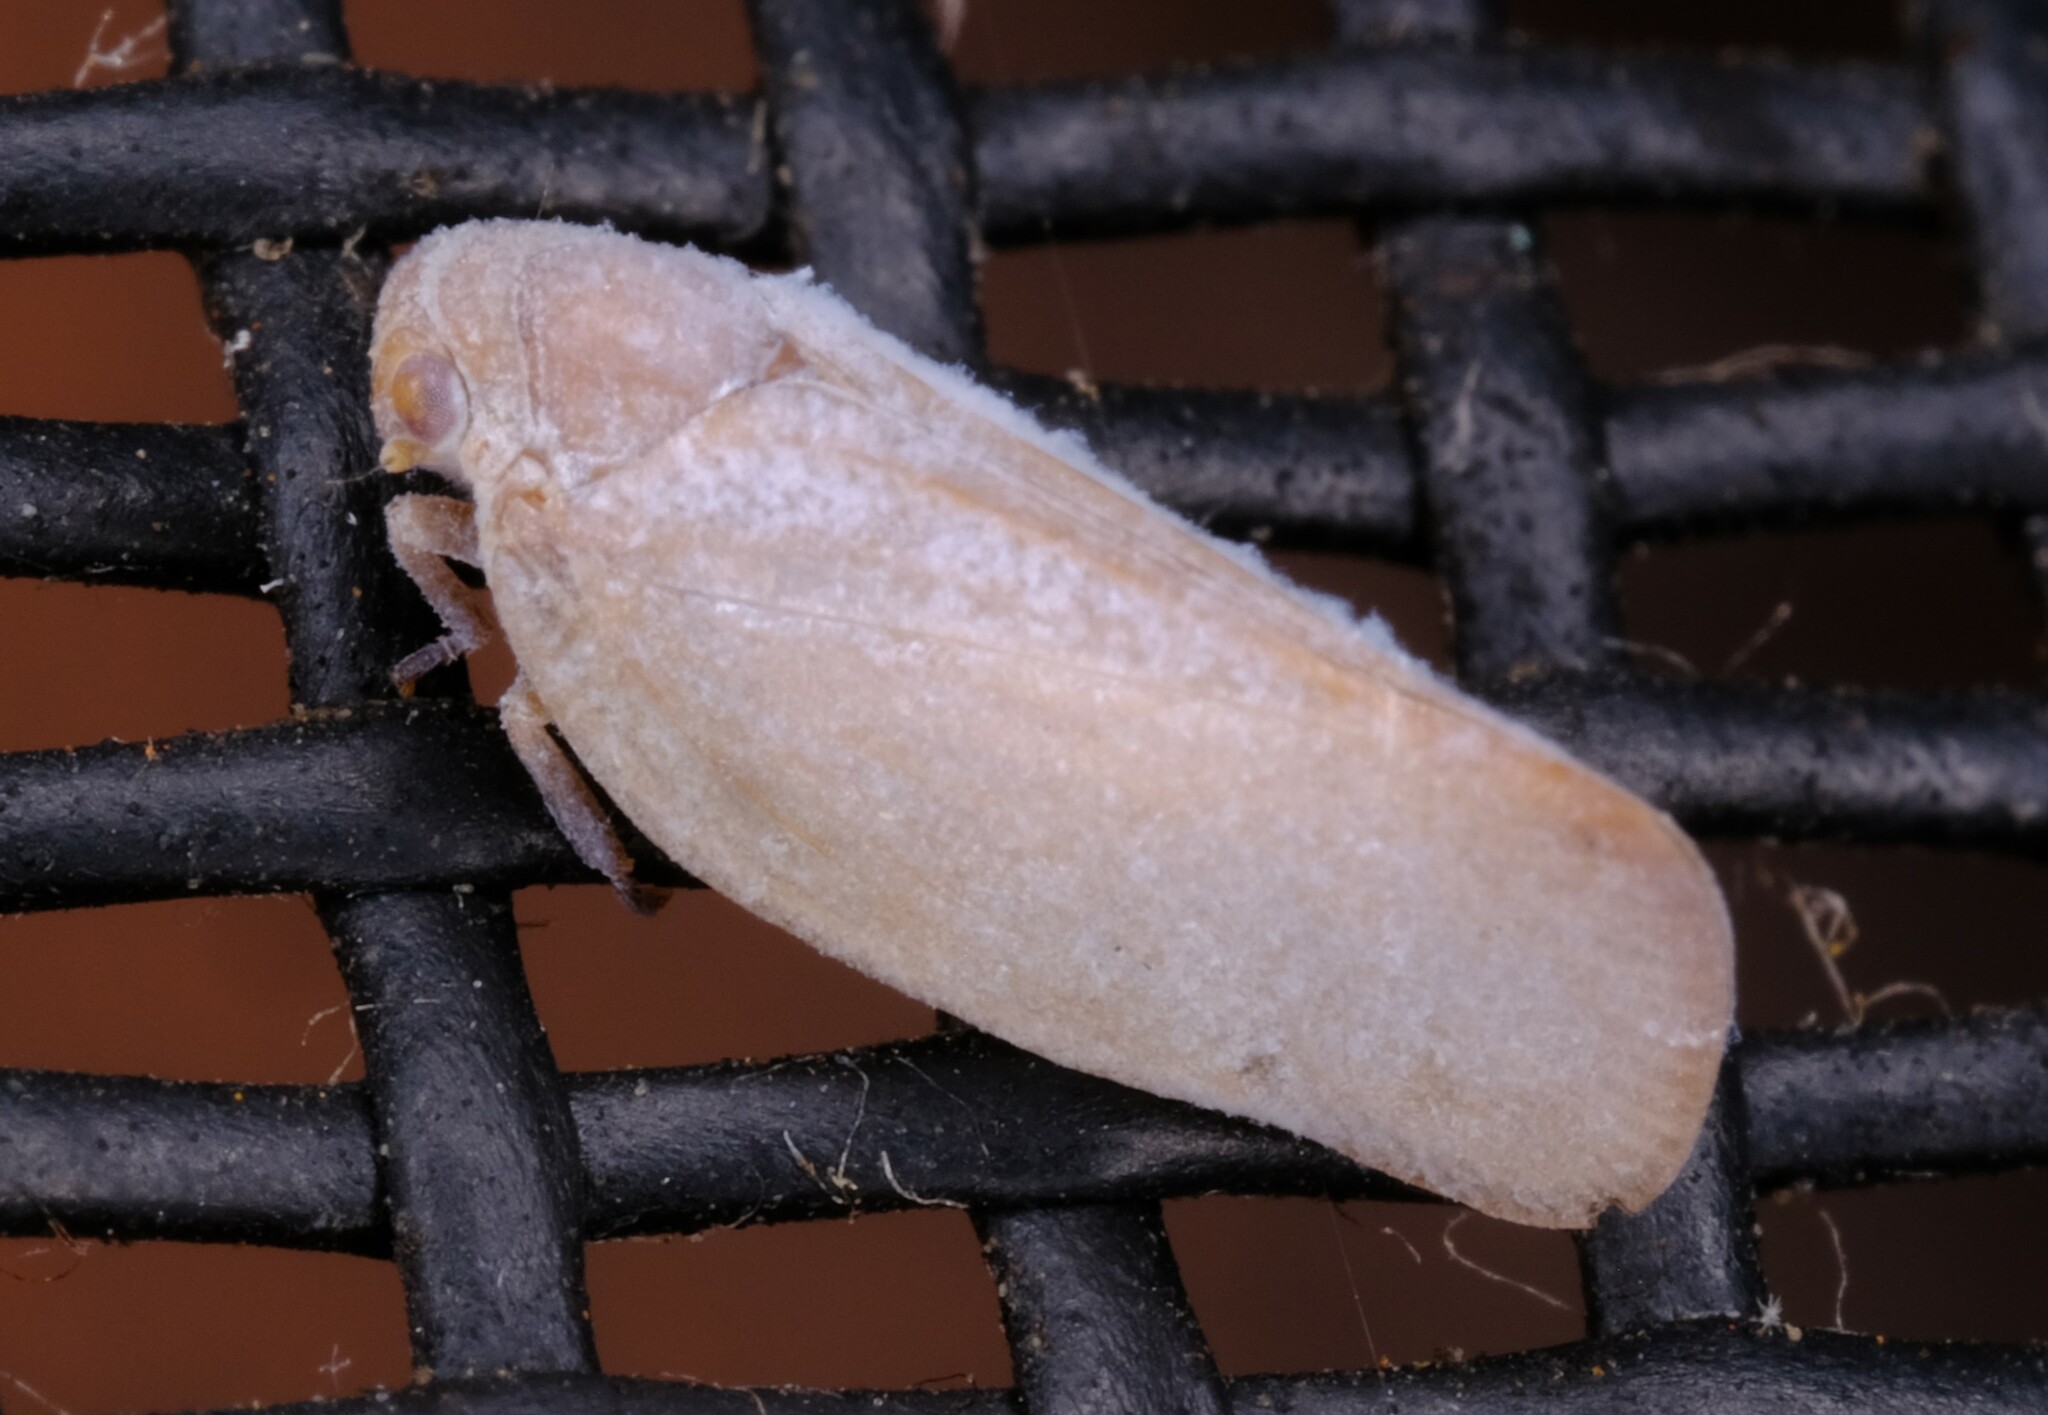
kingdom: Animalia
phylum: Arthropoda
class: Insecta
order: Hemiptera
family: Flatidae
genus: Anzora
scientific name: Anzora unicolor
